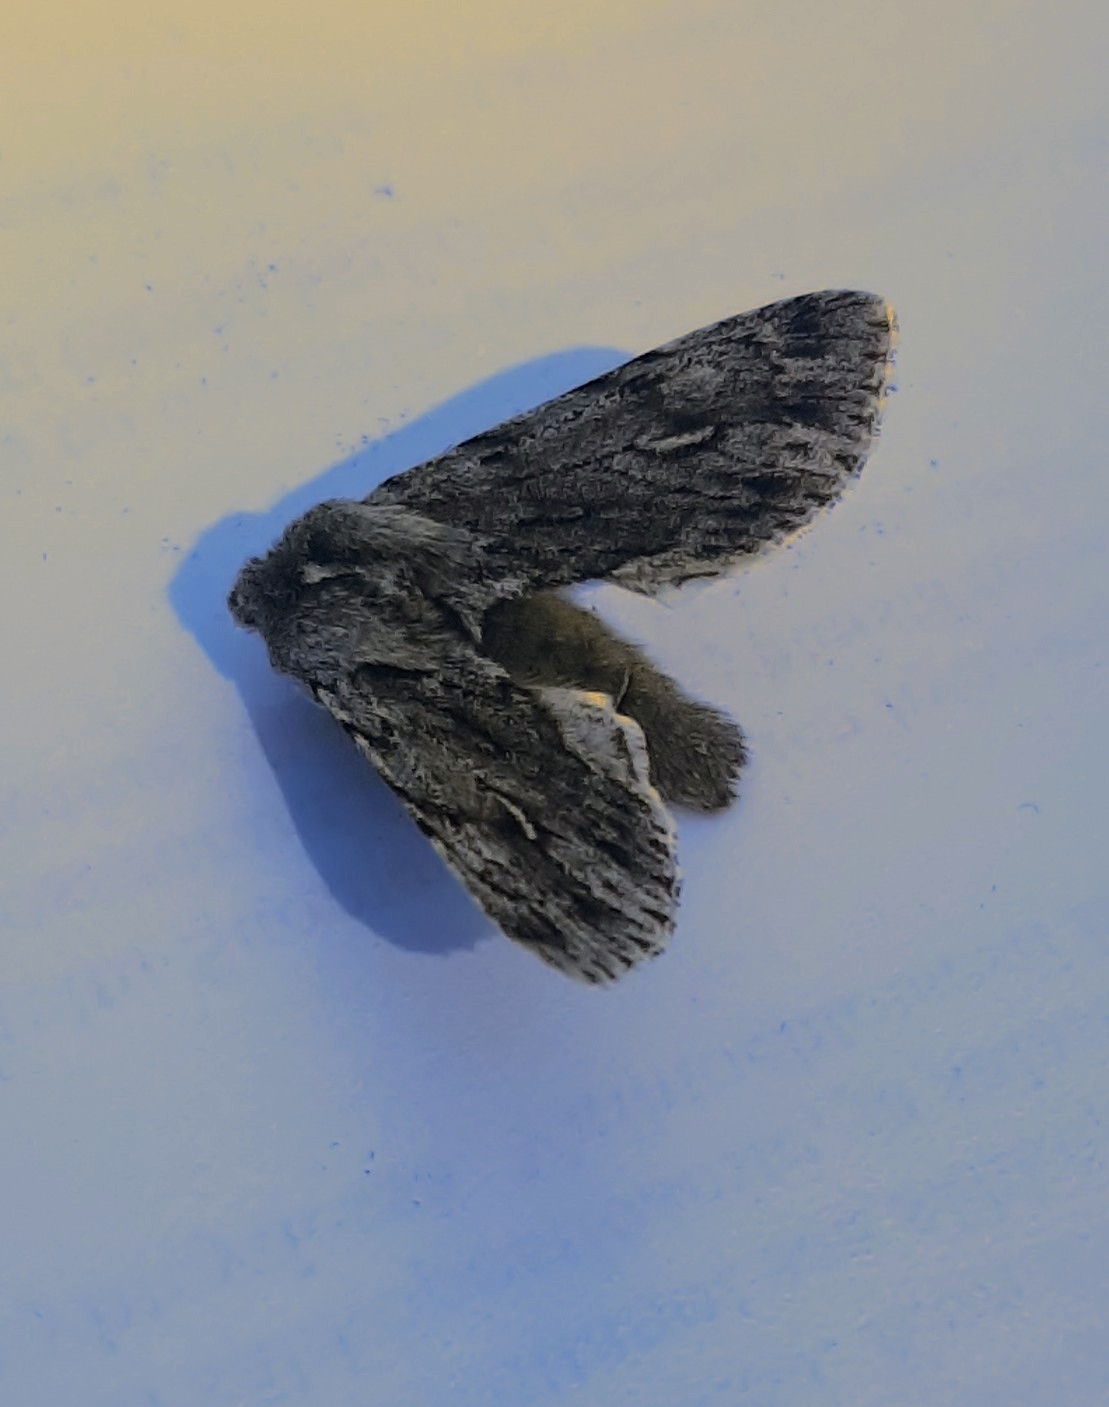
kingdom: Animalia
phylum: Arthropoda
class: Insecta
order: Lepidoptera
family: Noctuidae
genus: Brachionycha
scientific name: Brachionycha nubeculosa
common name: Rannoch sprawler
